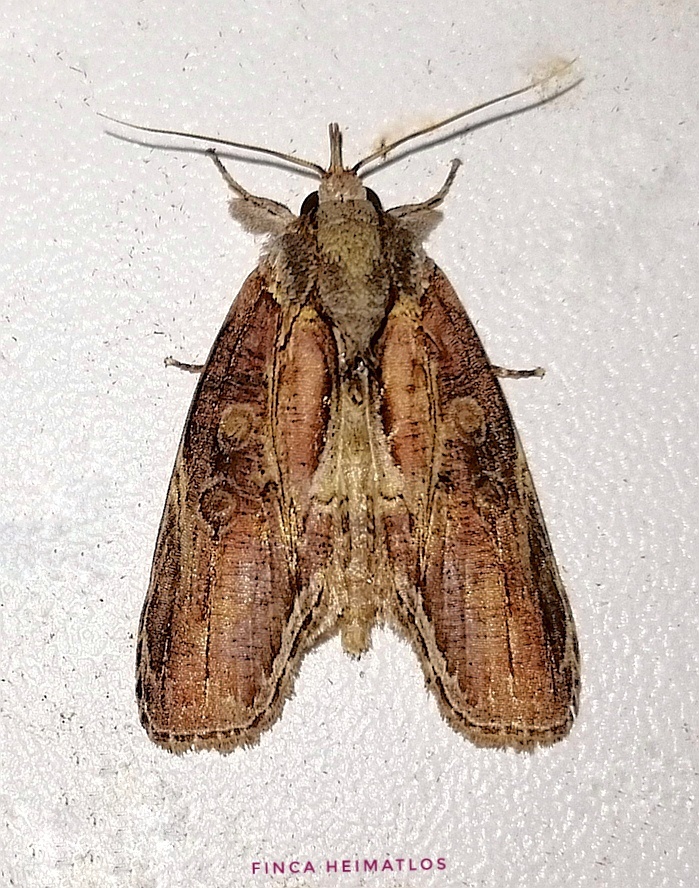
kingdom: Animalia
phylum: Arthropoda
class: Insecta
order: Lepidoptera
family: Nolidae
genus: Iscadia
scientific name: Iscadia purpurascens
